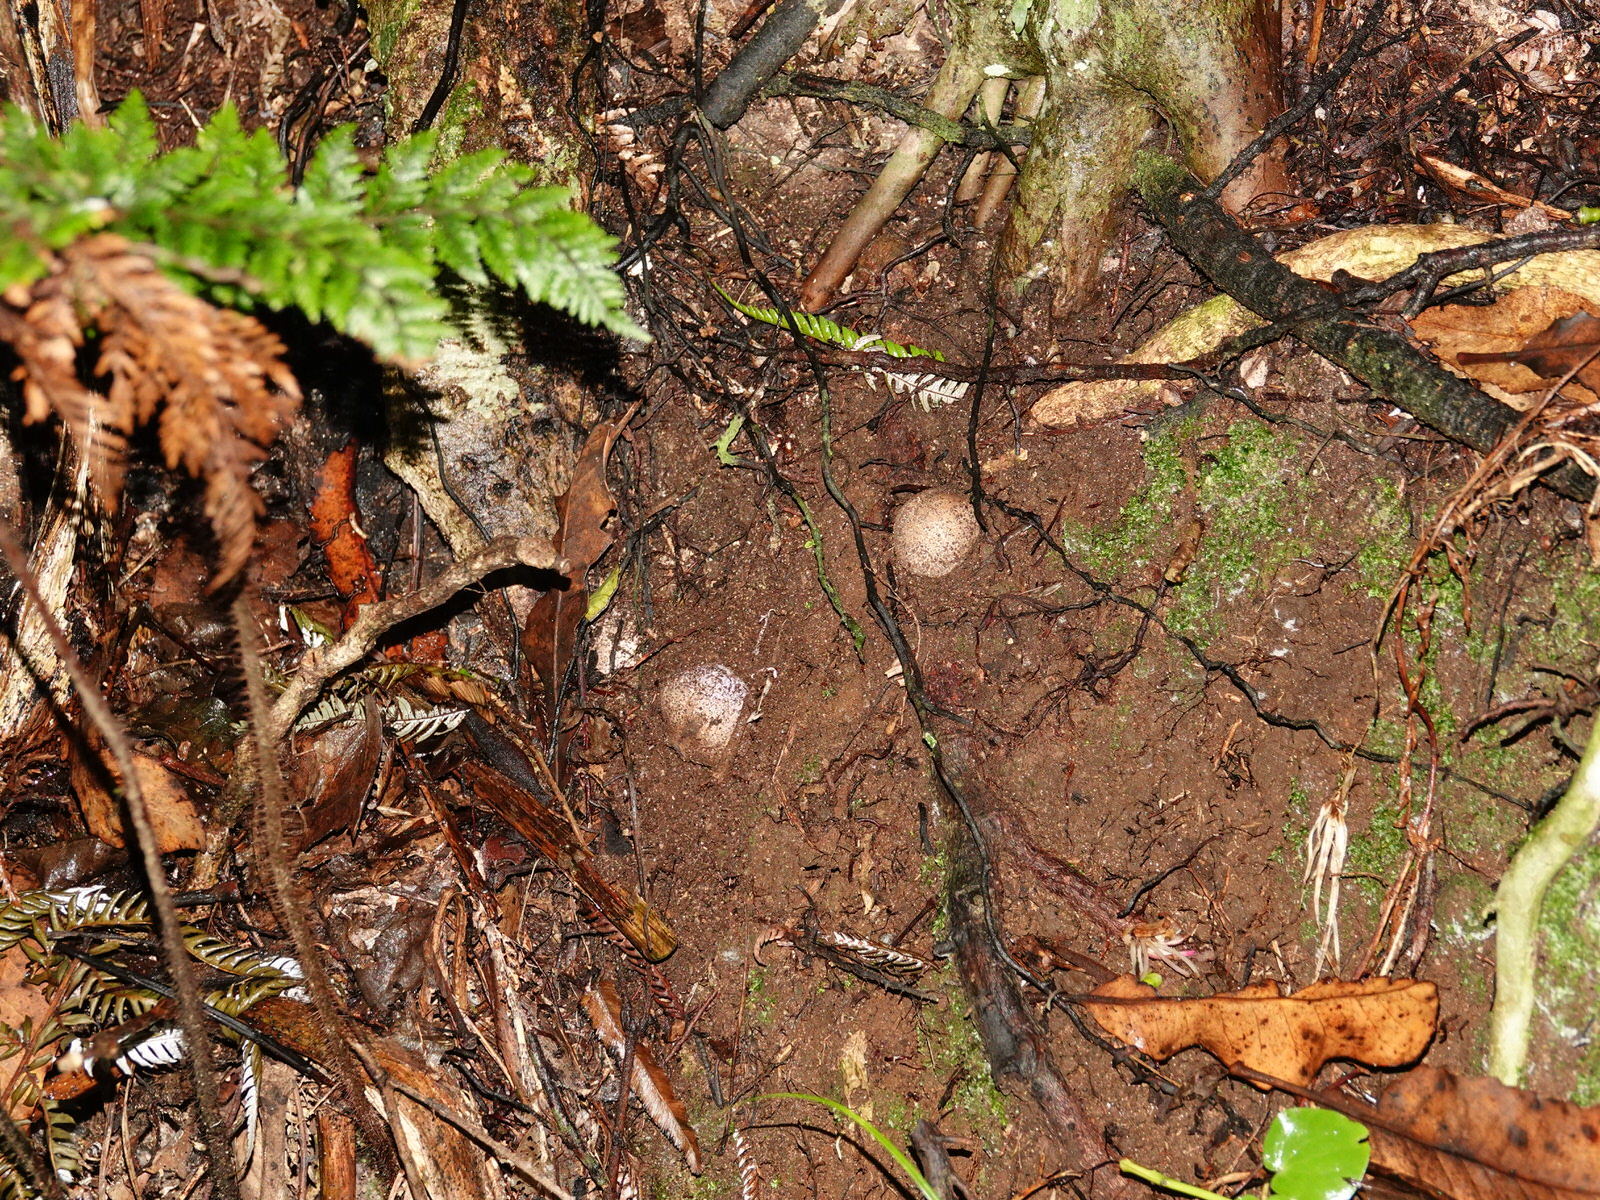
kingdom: Fungi
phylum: Basidiomycota
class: Agaricomycetes
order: Phallales
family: Phallaceae
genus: Clathrus
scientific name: Clathrus archeri
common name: Devil's fingers
